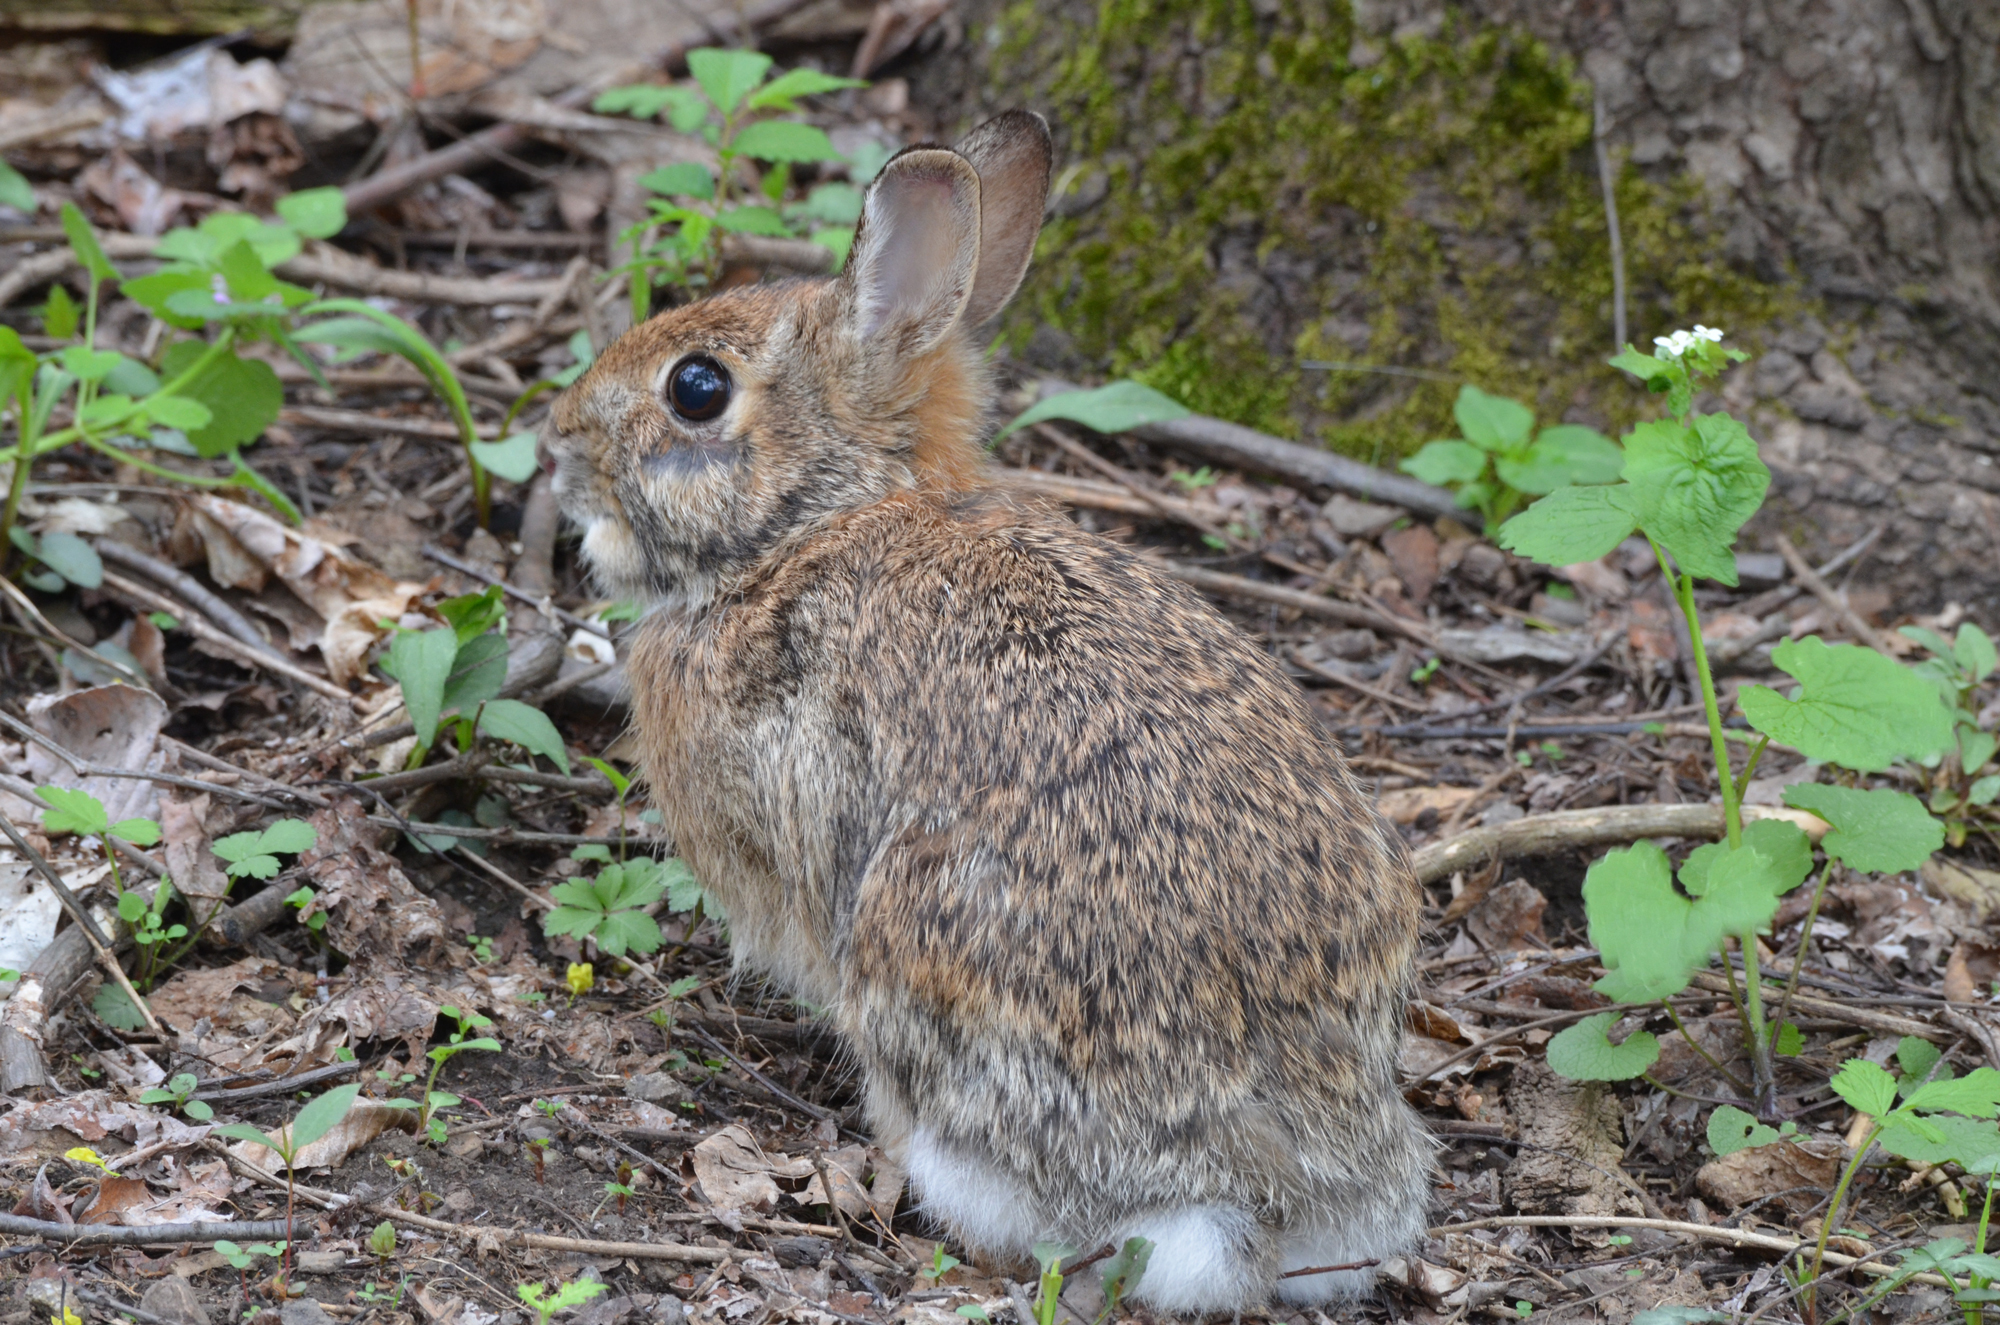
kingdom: Animalia
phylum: Chordata
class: Mammalia
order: Lagomorpha
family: Leporidae
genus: Sylvilagus
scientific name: Sylvilagus floridanus
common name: Eastern cottontail
